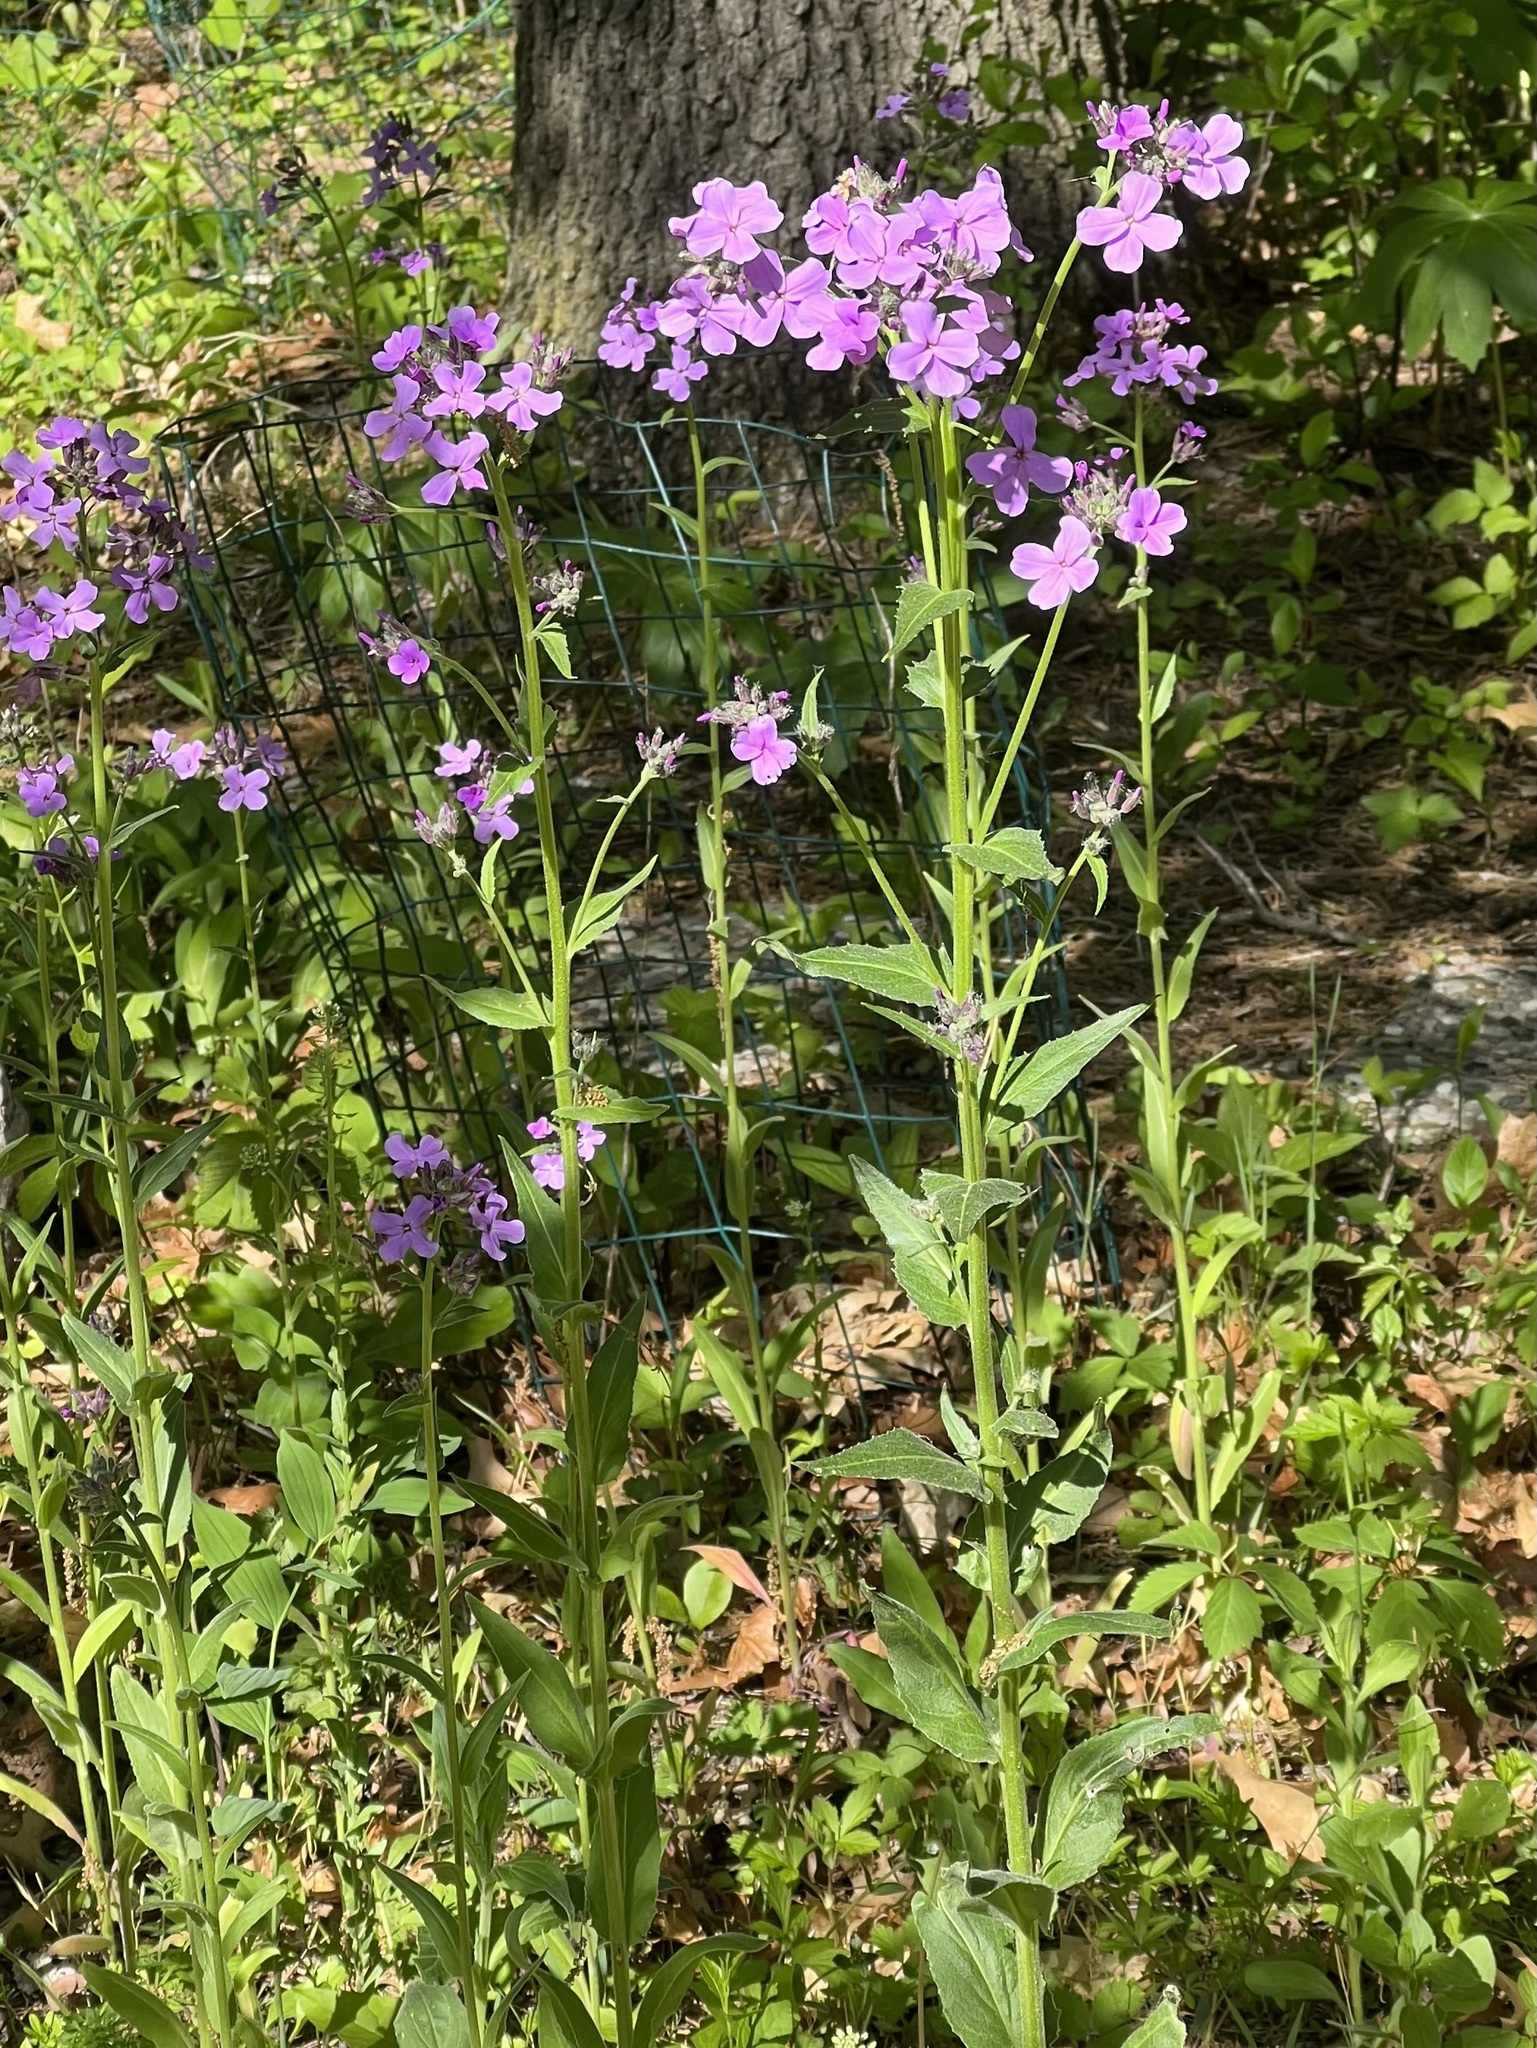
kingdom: Plantae
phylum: Tracheophyta
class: Magnoliopsida
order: Brassicales
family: Brassicaceae
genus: Hesperis
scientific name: Hesperis matronalis
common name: Dame's-violet
